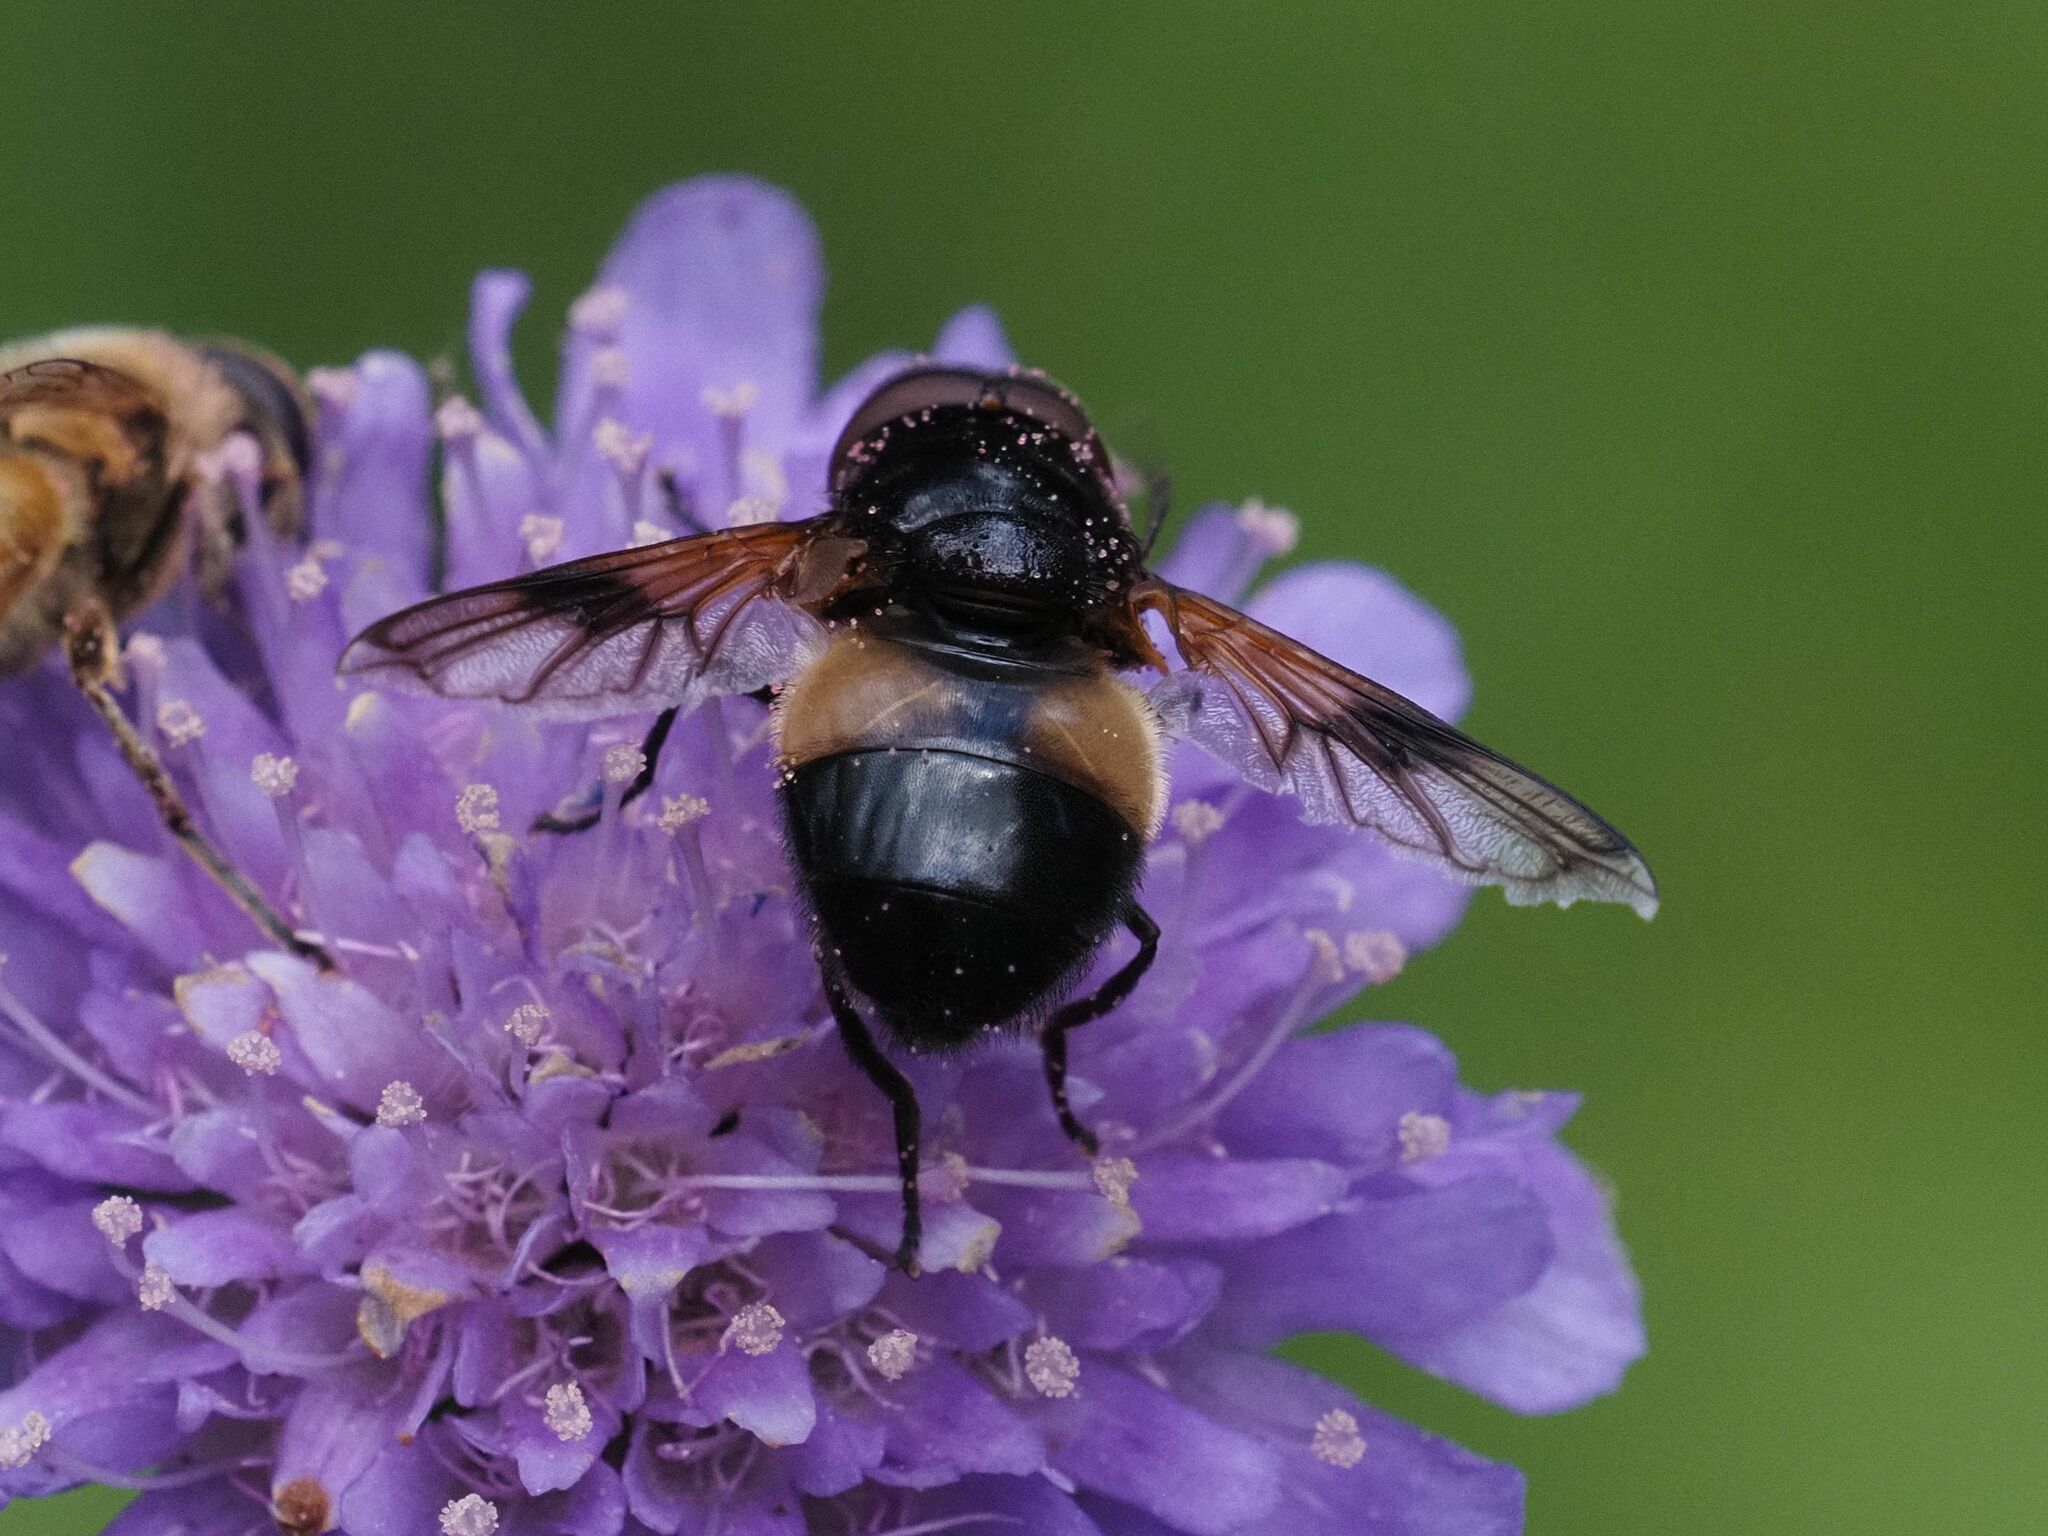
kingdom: Animalia
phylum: Arthropoda
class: Insecta
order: Diptera
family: Syrphidae
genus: Volucella
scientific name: Volucella pellucens
